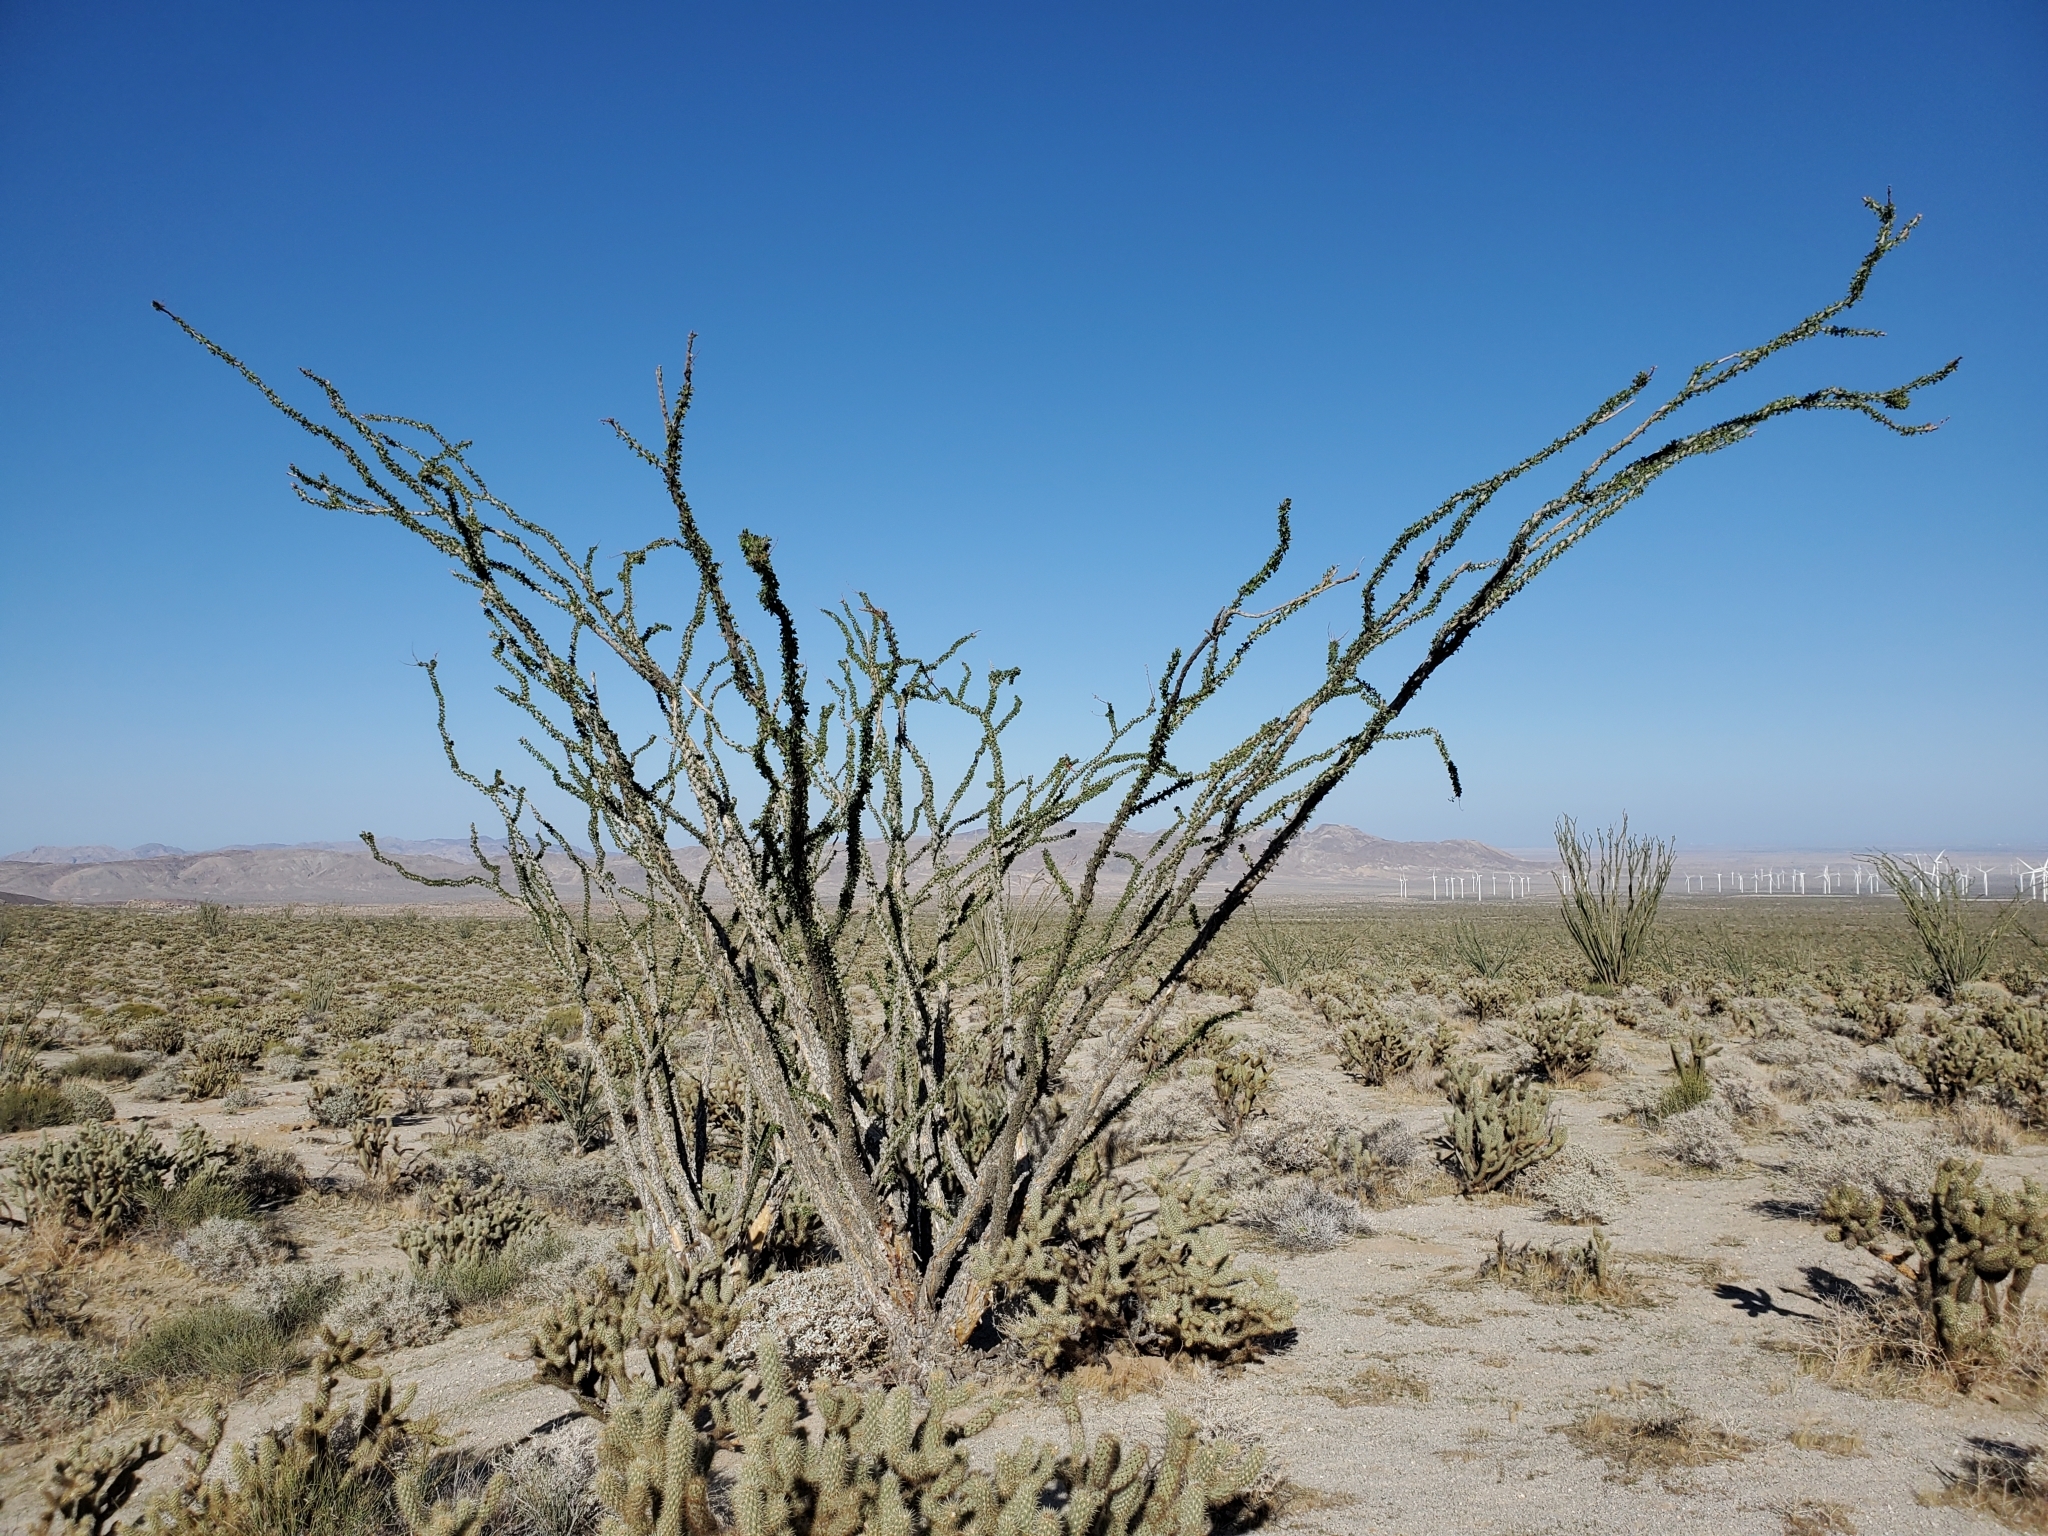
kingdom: Plantae
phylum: Tracheophyta
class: Magnoliopsida
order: Ericales
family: Fouquieriaceae
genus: Fouquieria
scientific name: Fouquieria splendens
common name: Vine-cactus
